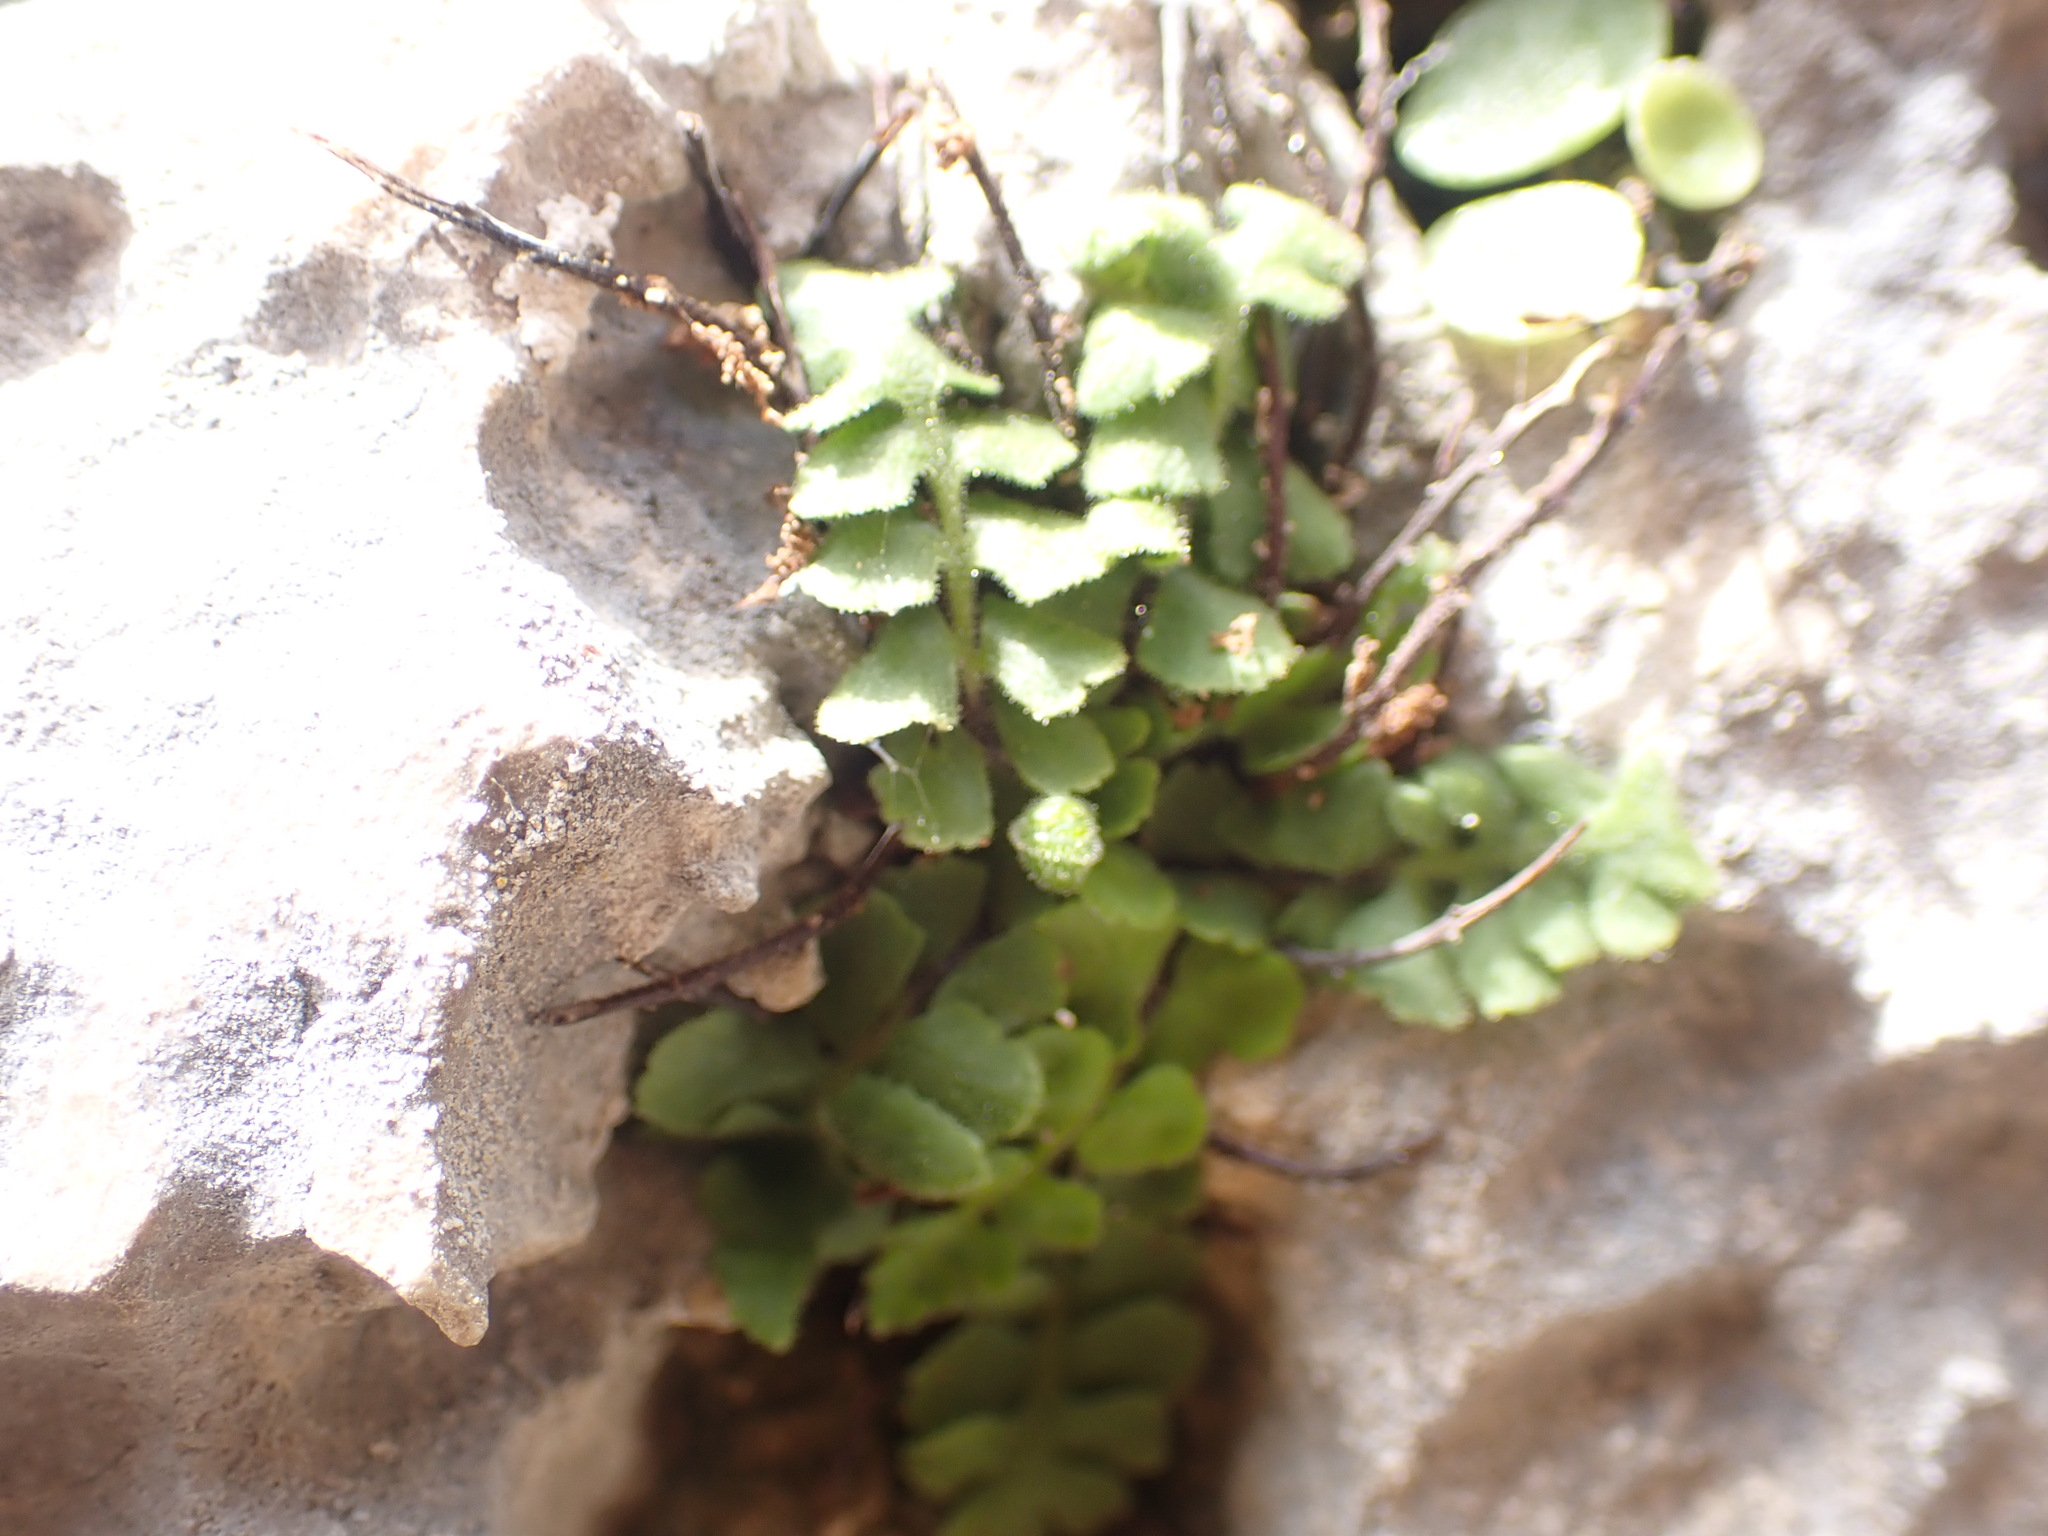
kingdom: Plantae
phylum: Tracheophyta
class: Polypodiopsida
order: Polypodiales
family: Aspleniaceae
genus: Asplenium
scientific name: Asplenium petrarchae
